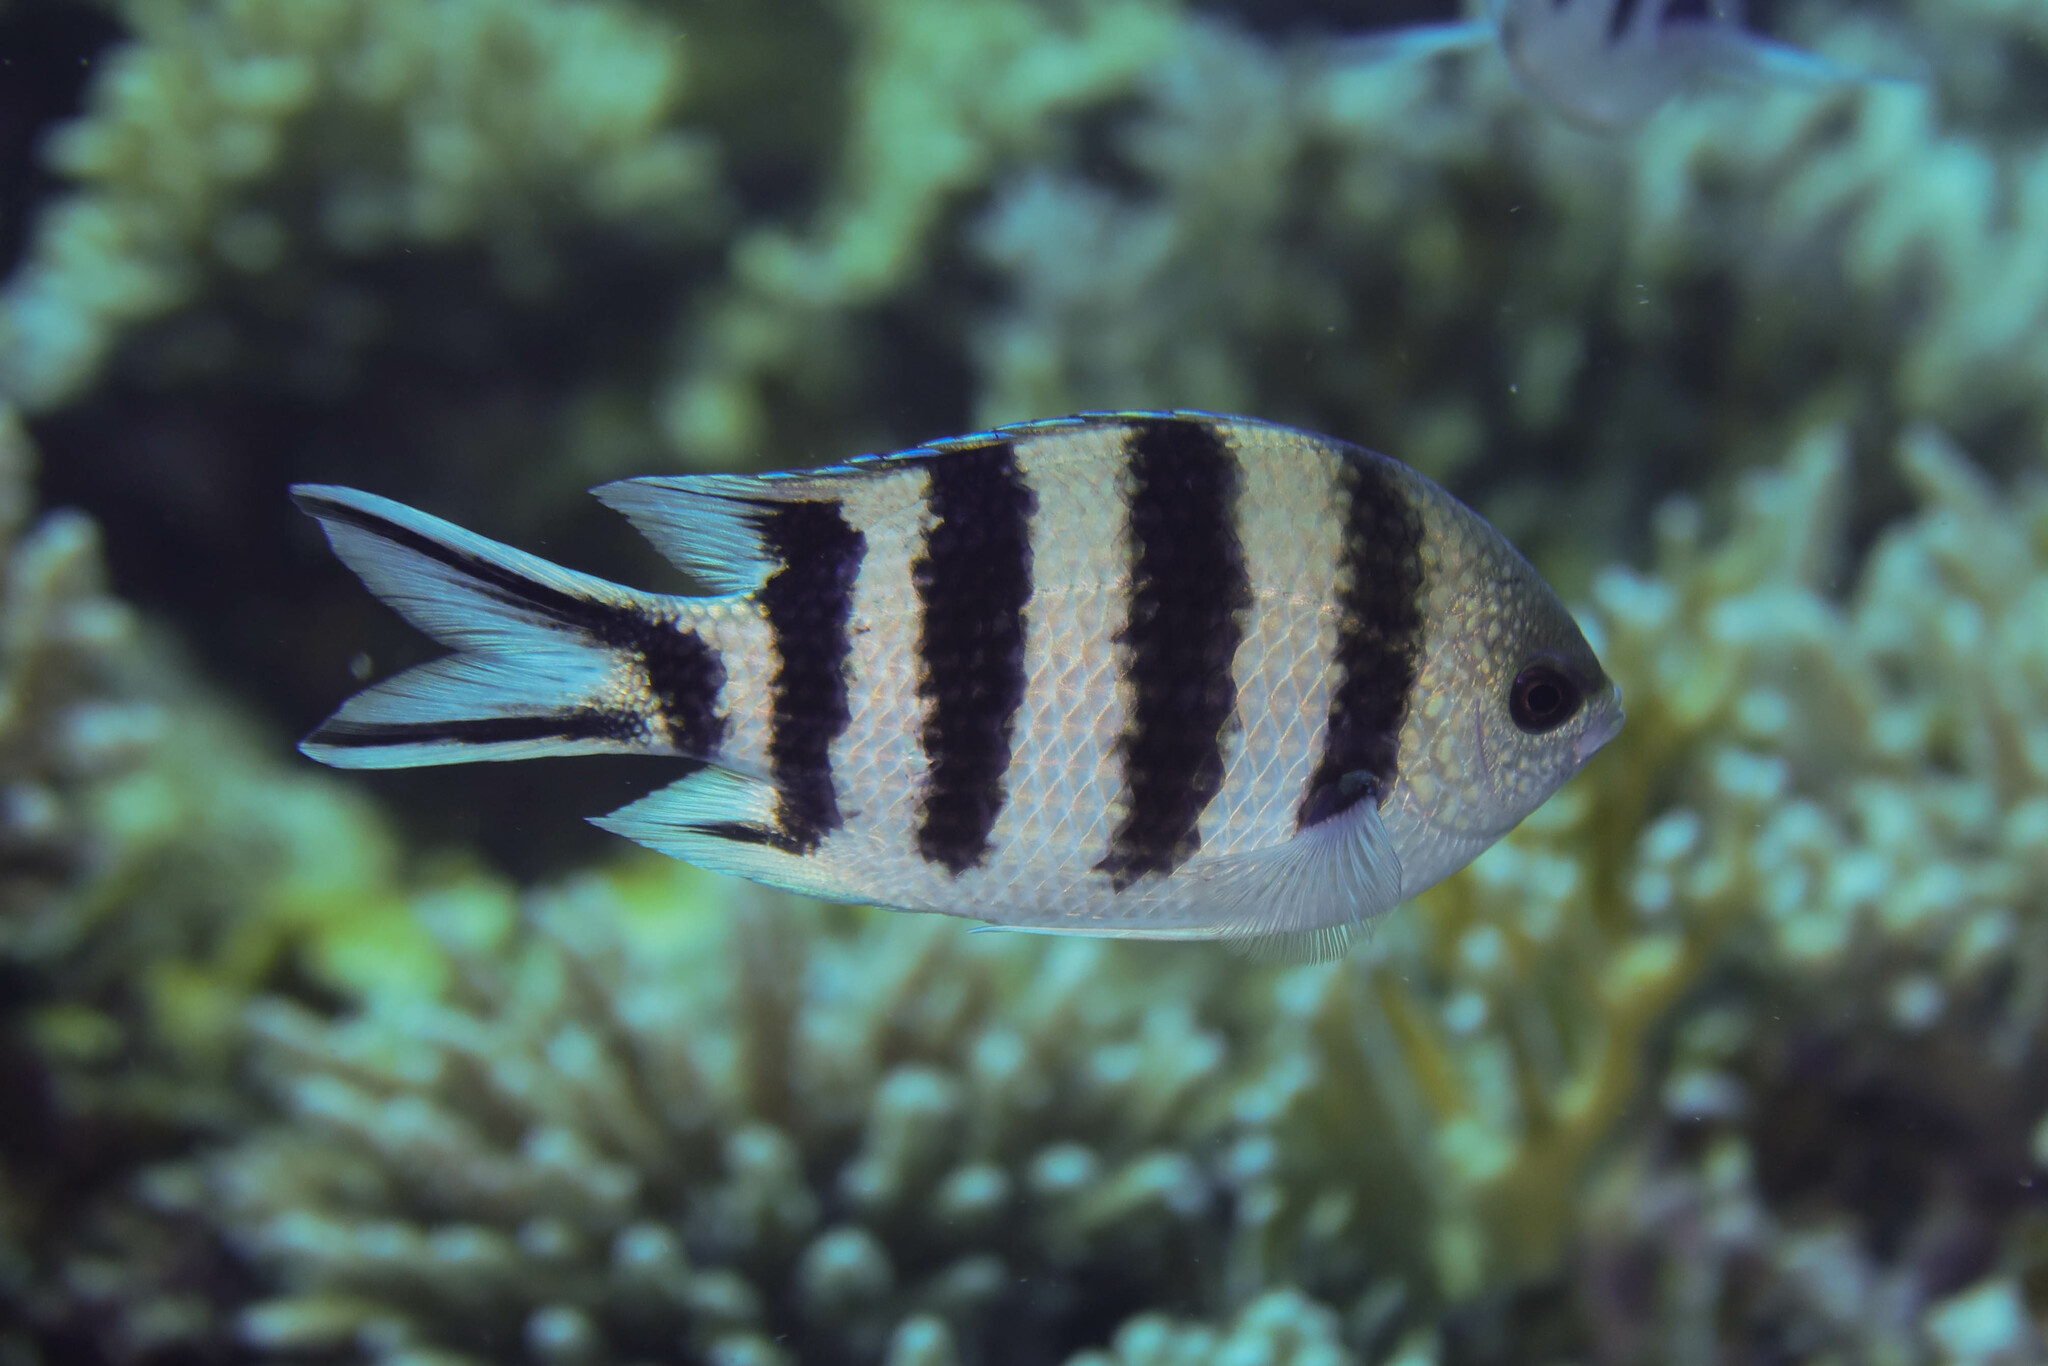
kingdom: Animalia
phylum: Chordata
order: Perciformes
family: Pomacentridae
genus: Abudefduf
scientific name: Abudefduf sexfasciatus
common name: Scissortail sergeant
